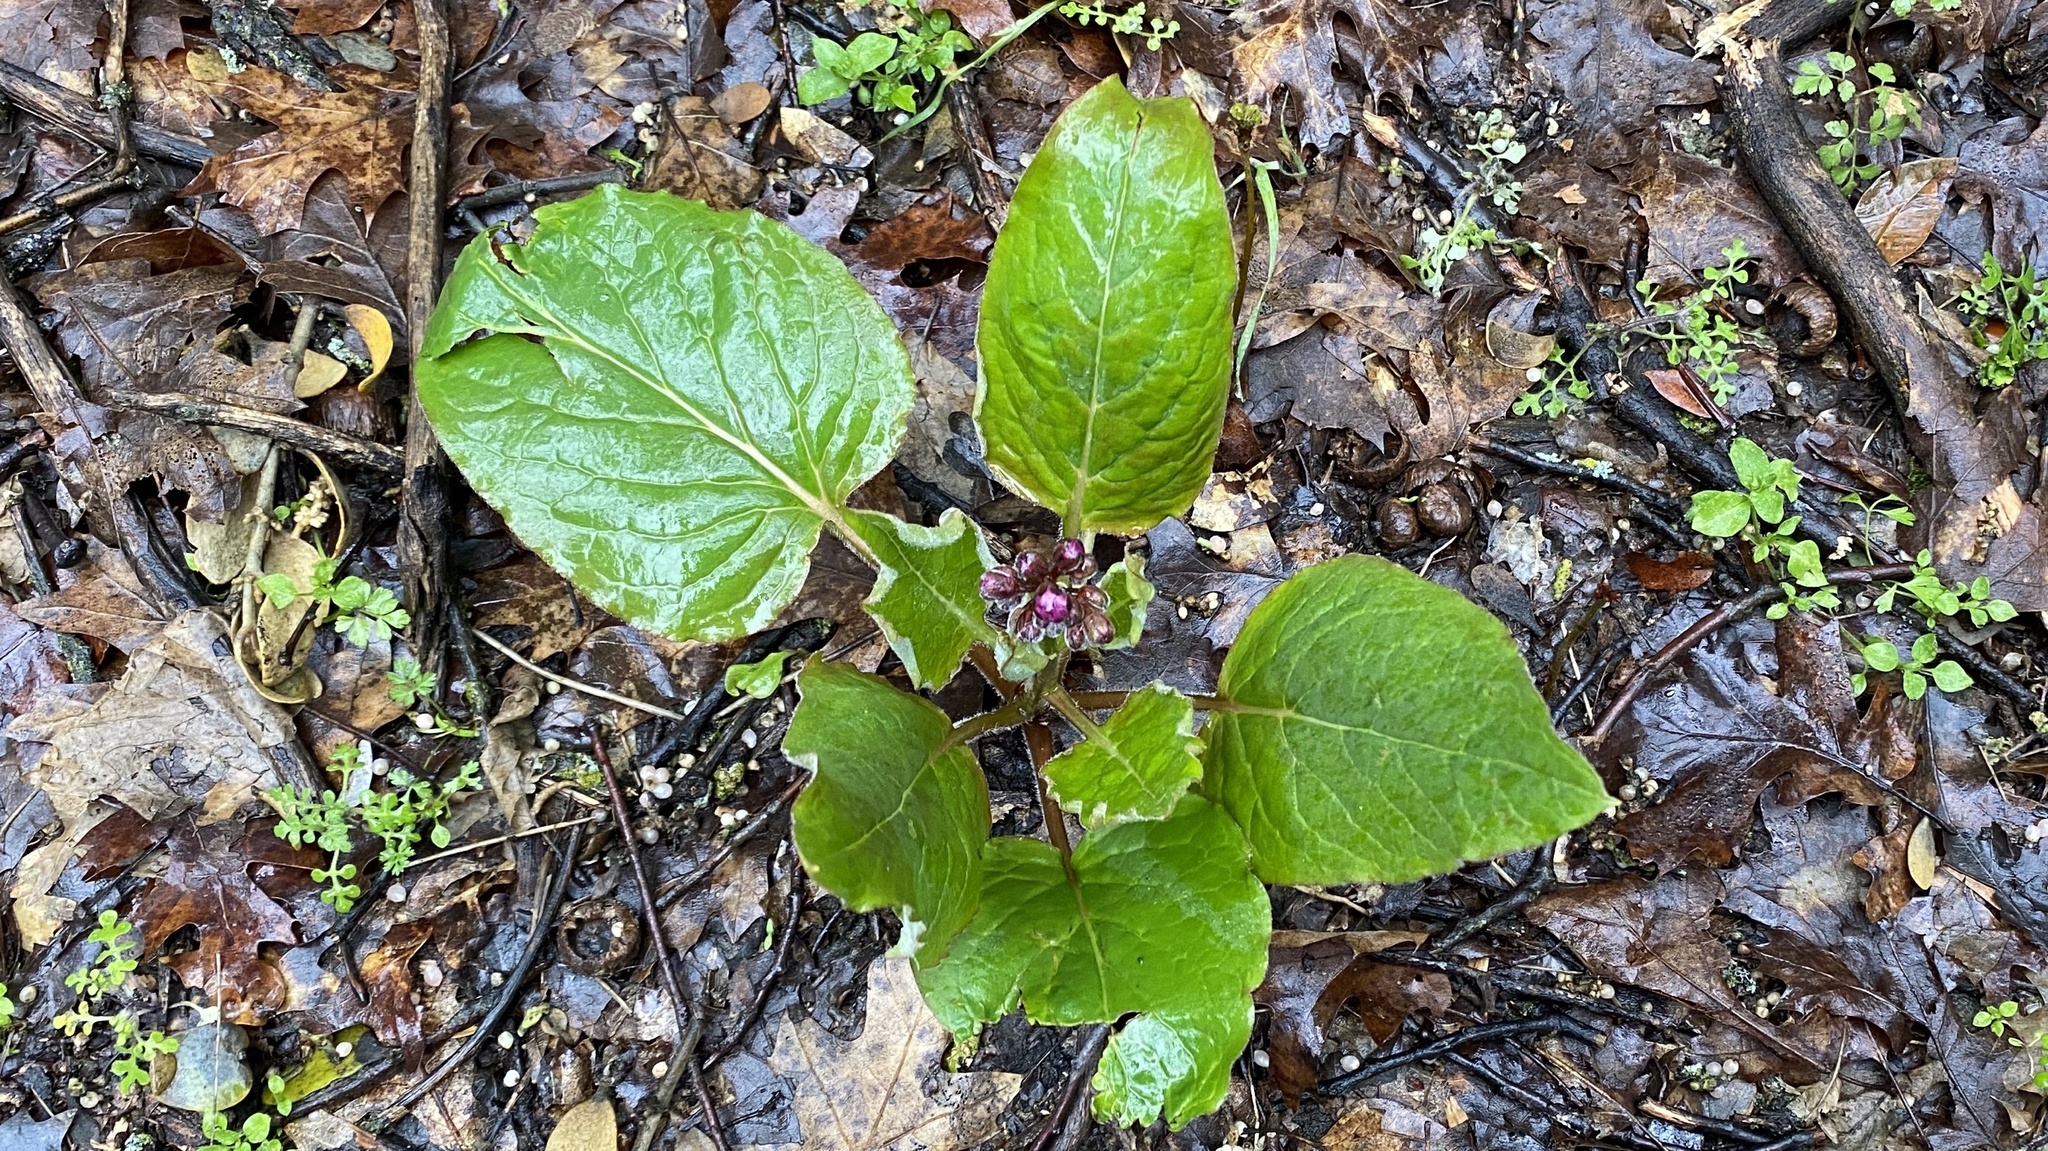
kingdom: Plantae
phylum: Tracheophyta
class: Magnoliopsida
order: Boraginales
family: Boraginaceae
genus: Adelinia
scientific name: Adelinia grande
